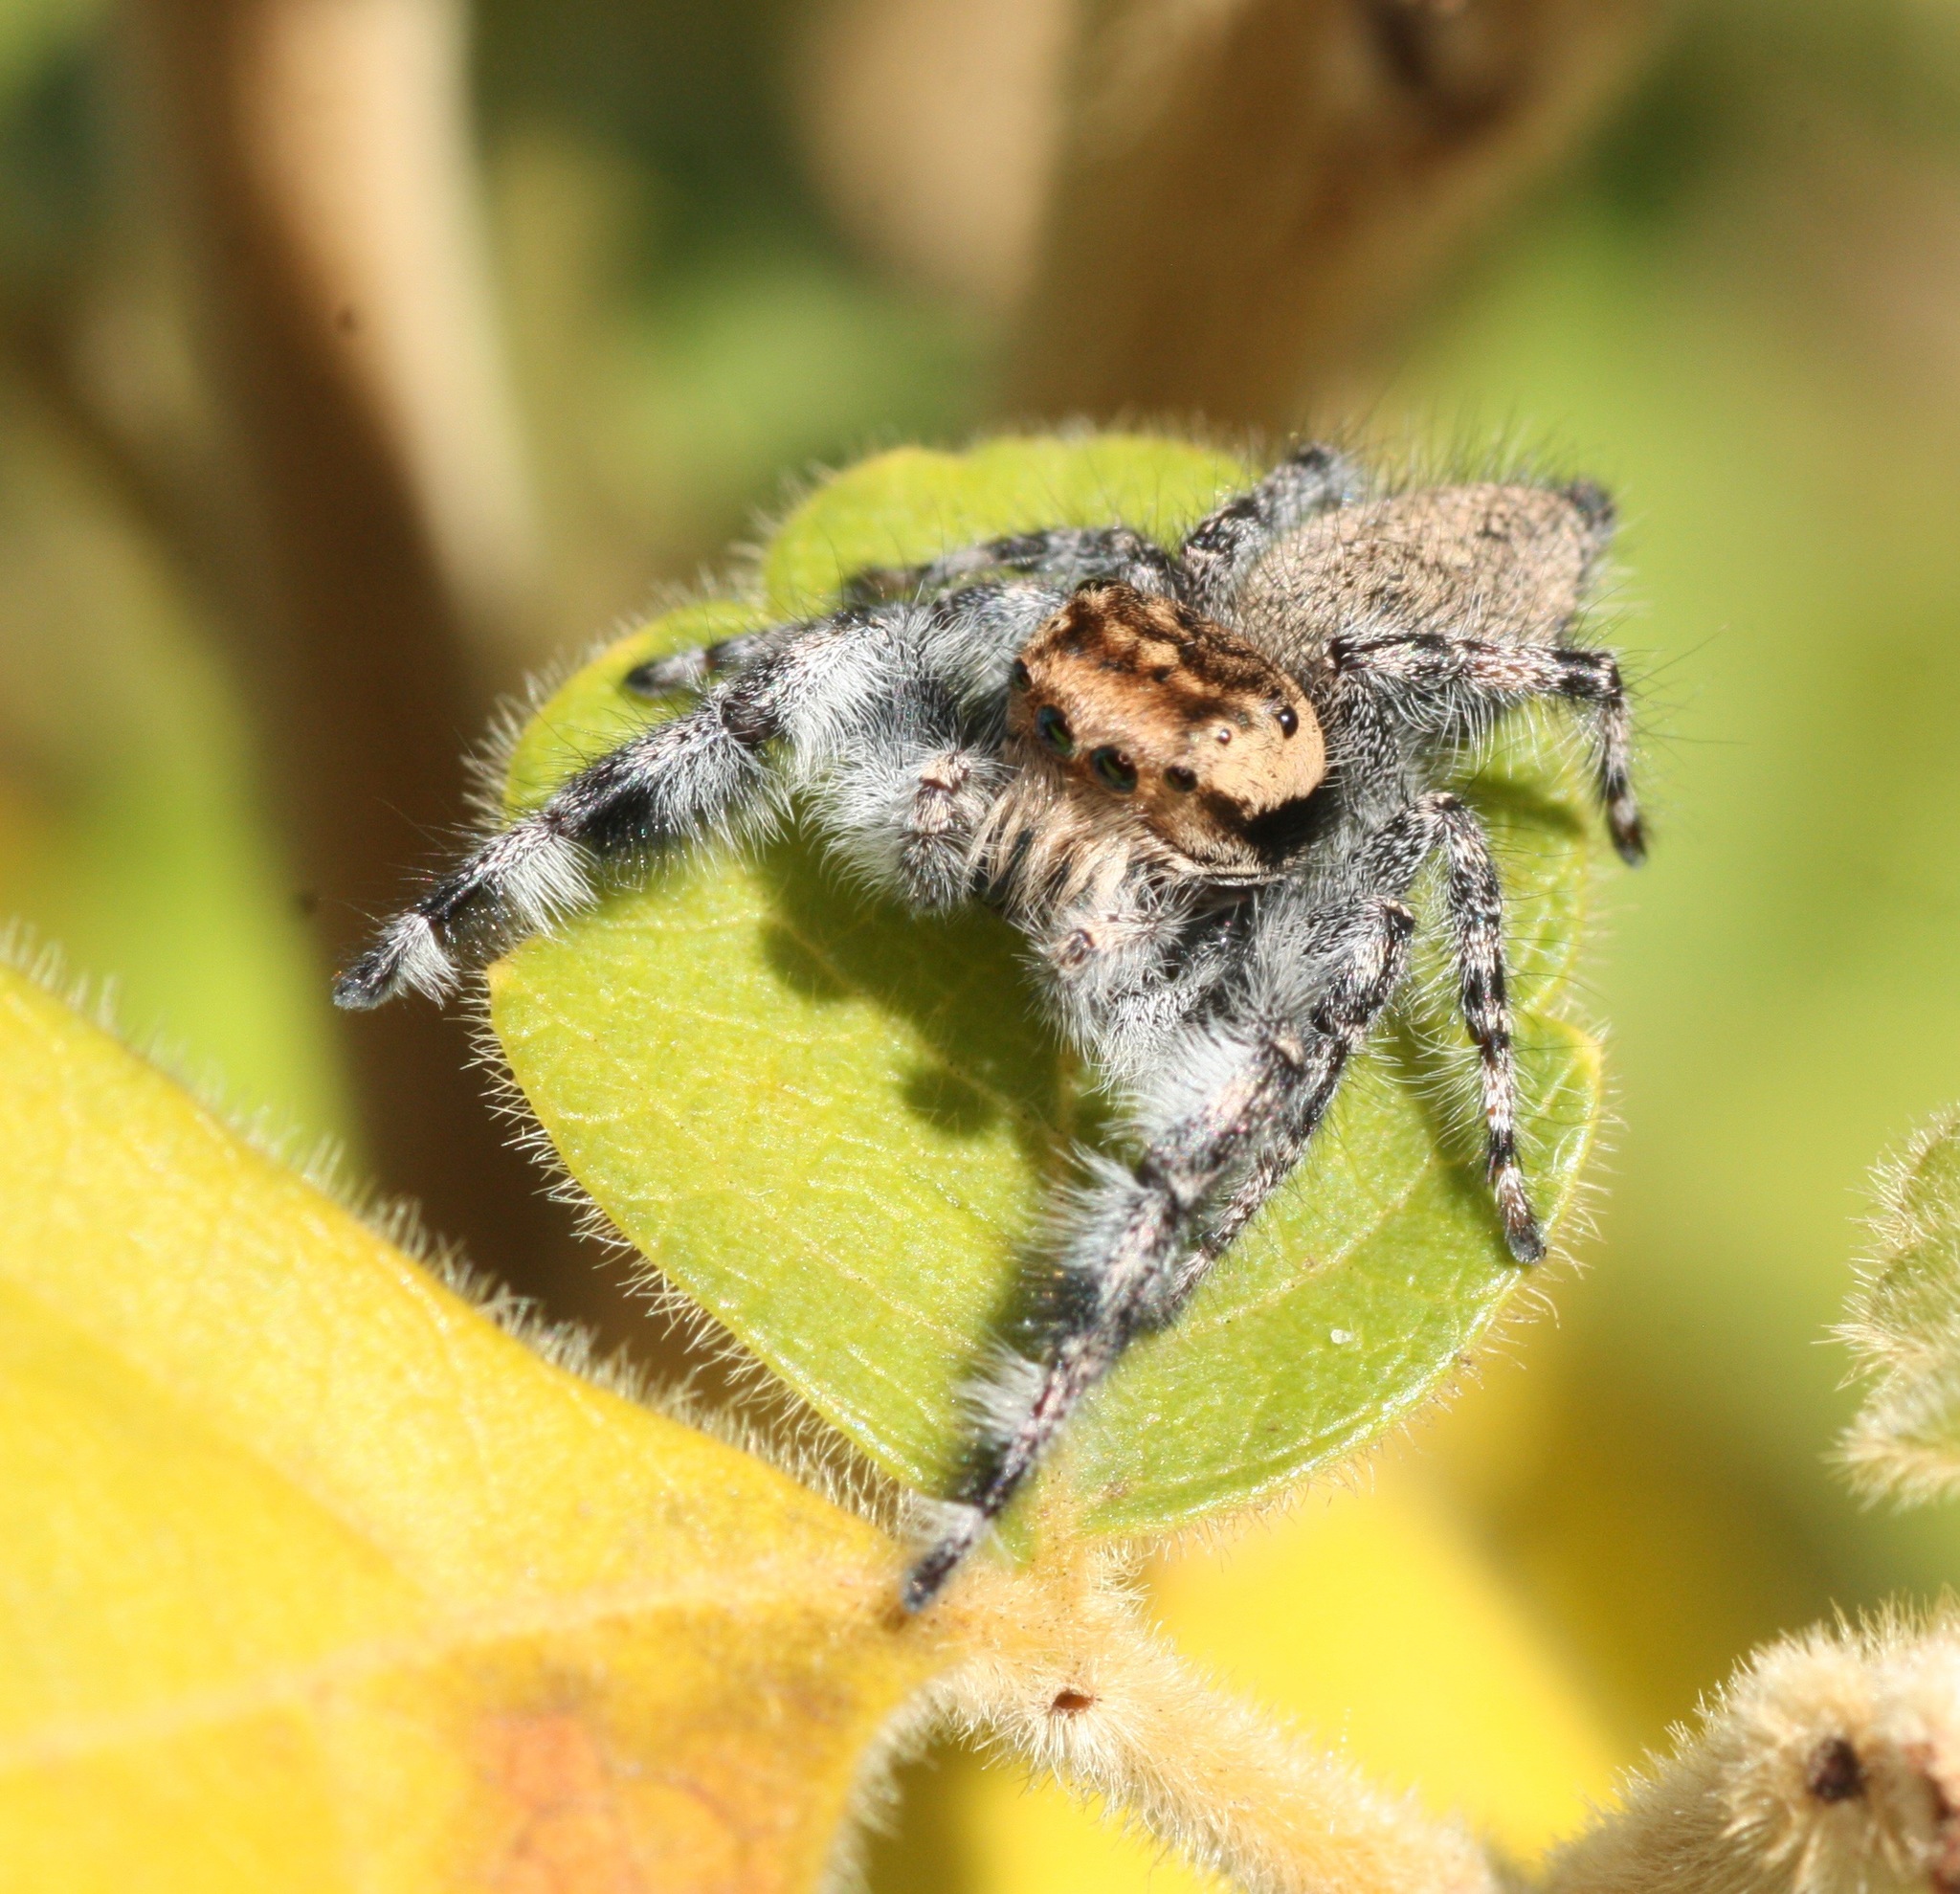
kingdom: Animalia
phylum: Arthropoda
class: Arachnida
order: Araneae
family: Salticidae
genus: Phidippus
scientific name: Phidippus asotus
